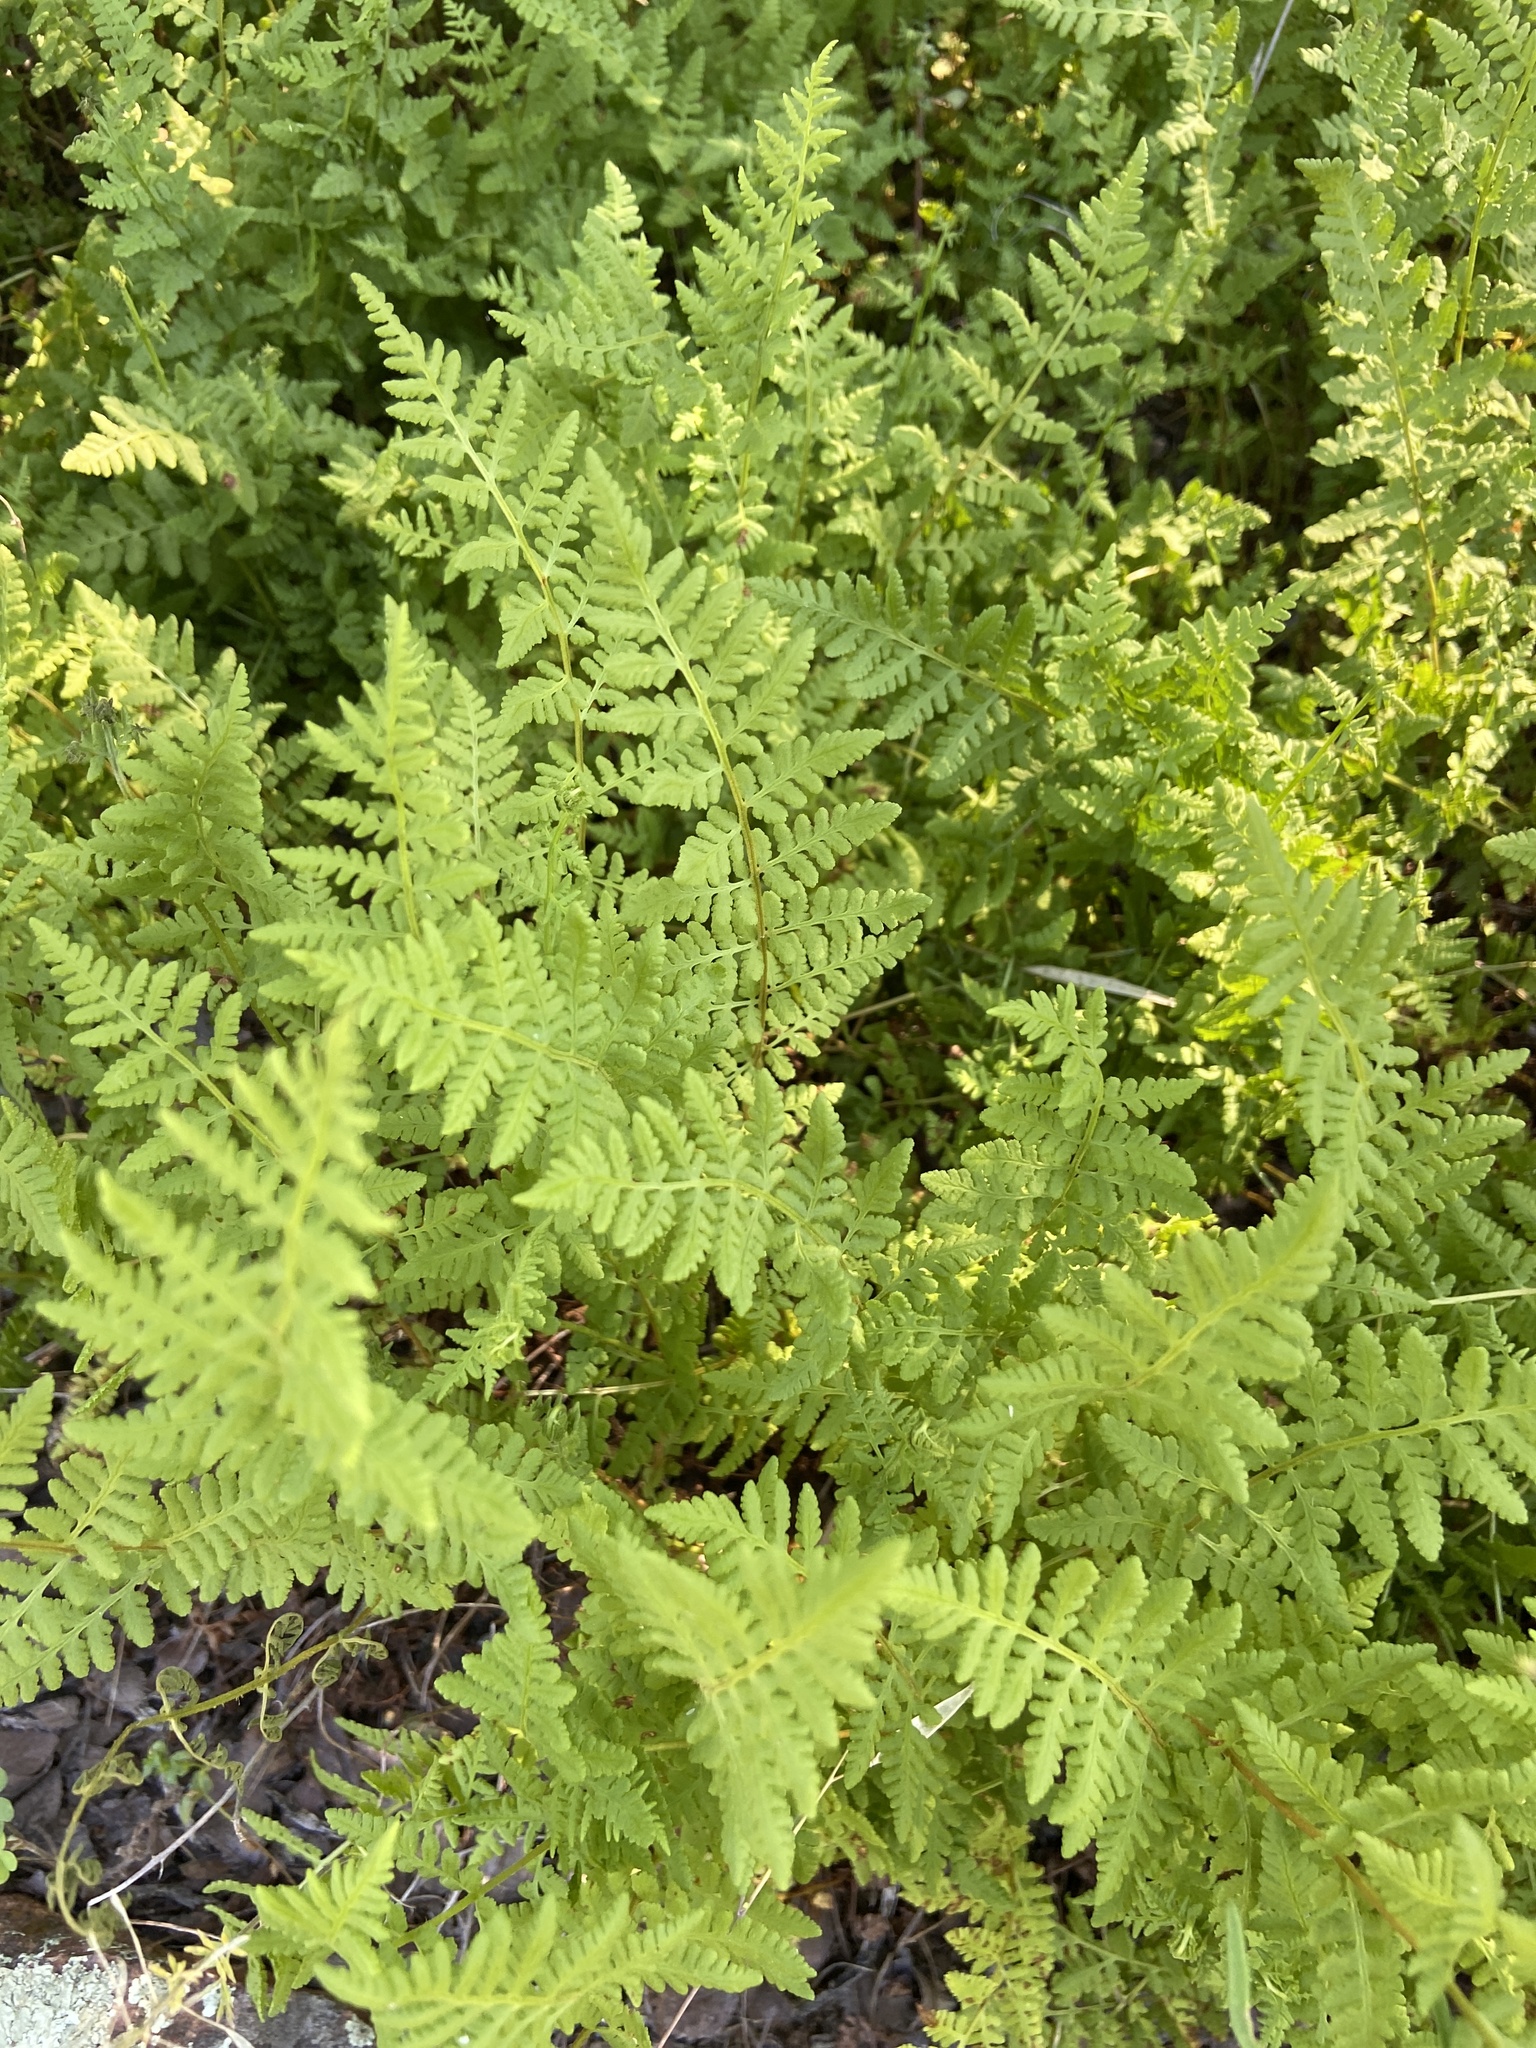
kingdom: Plantae
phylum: Tracheophyta
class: Polypodiopsida
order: Polypodiales
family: Woodsiaceae
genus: Physematium
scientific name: Physematium obtusum
